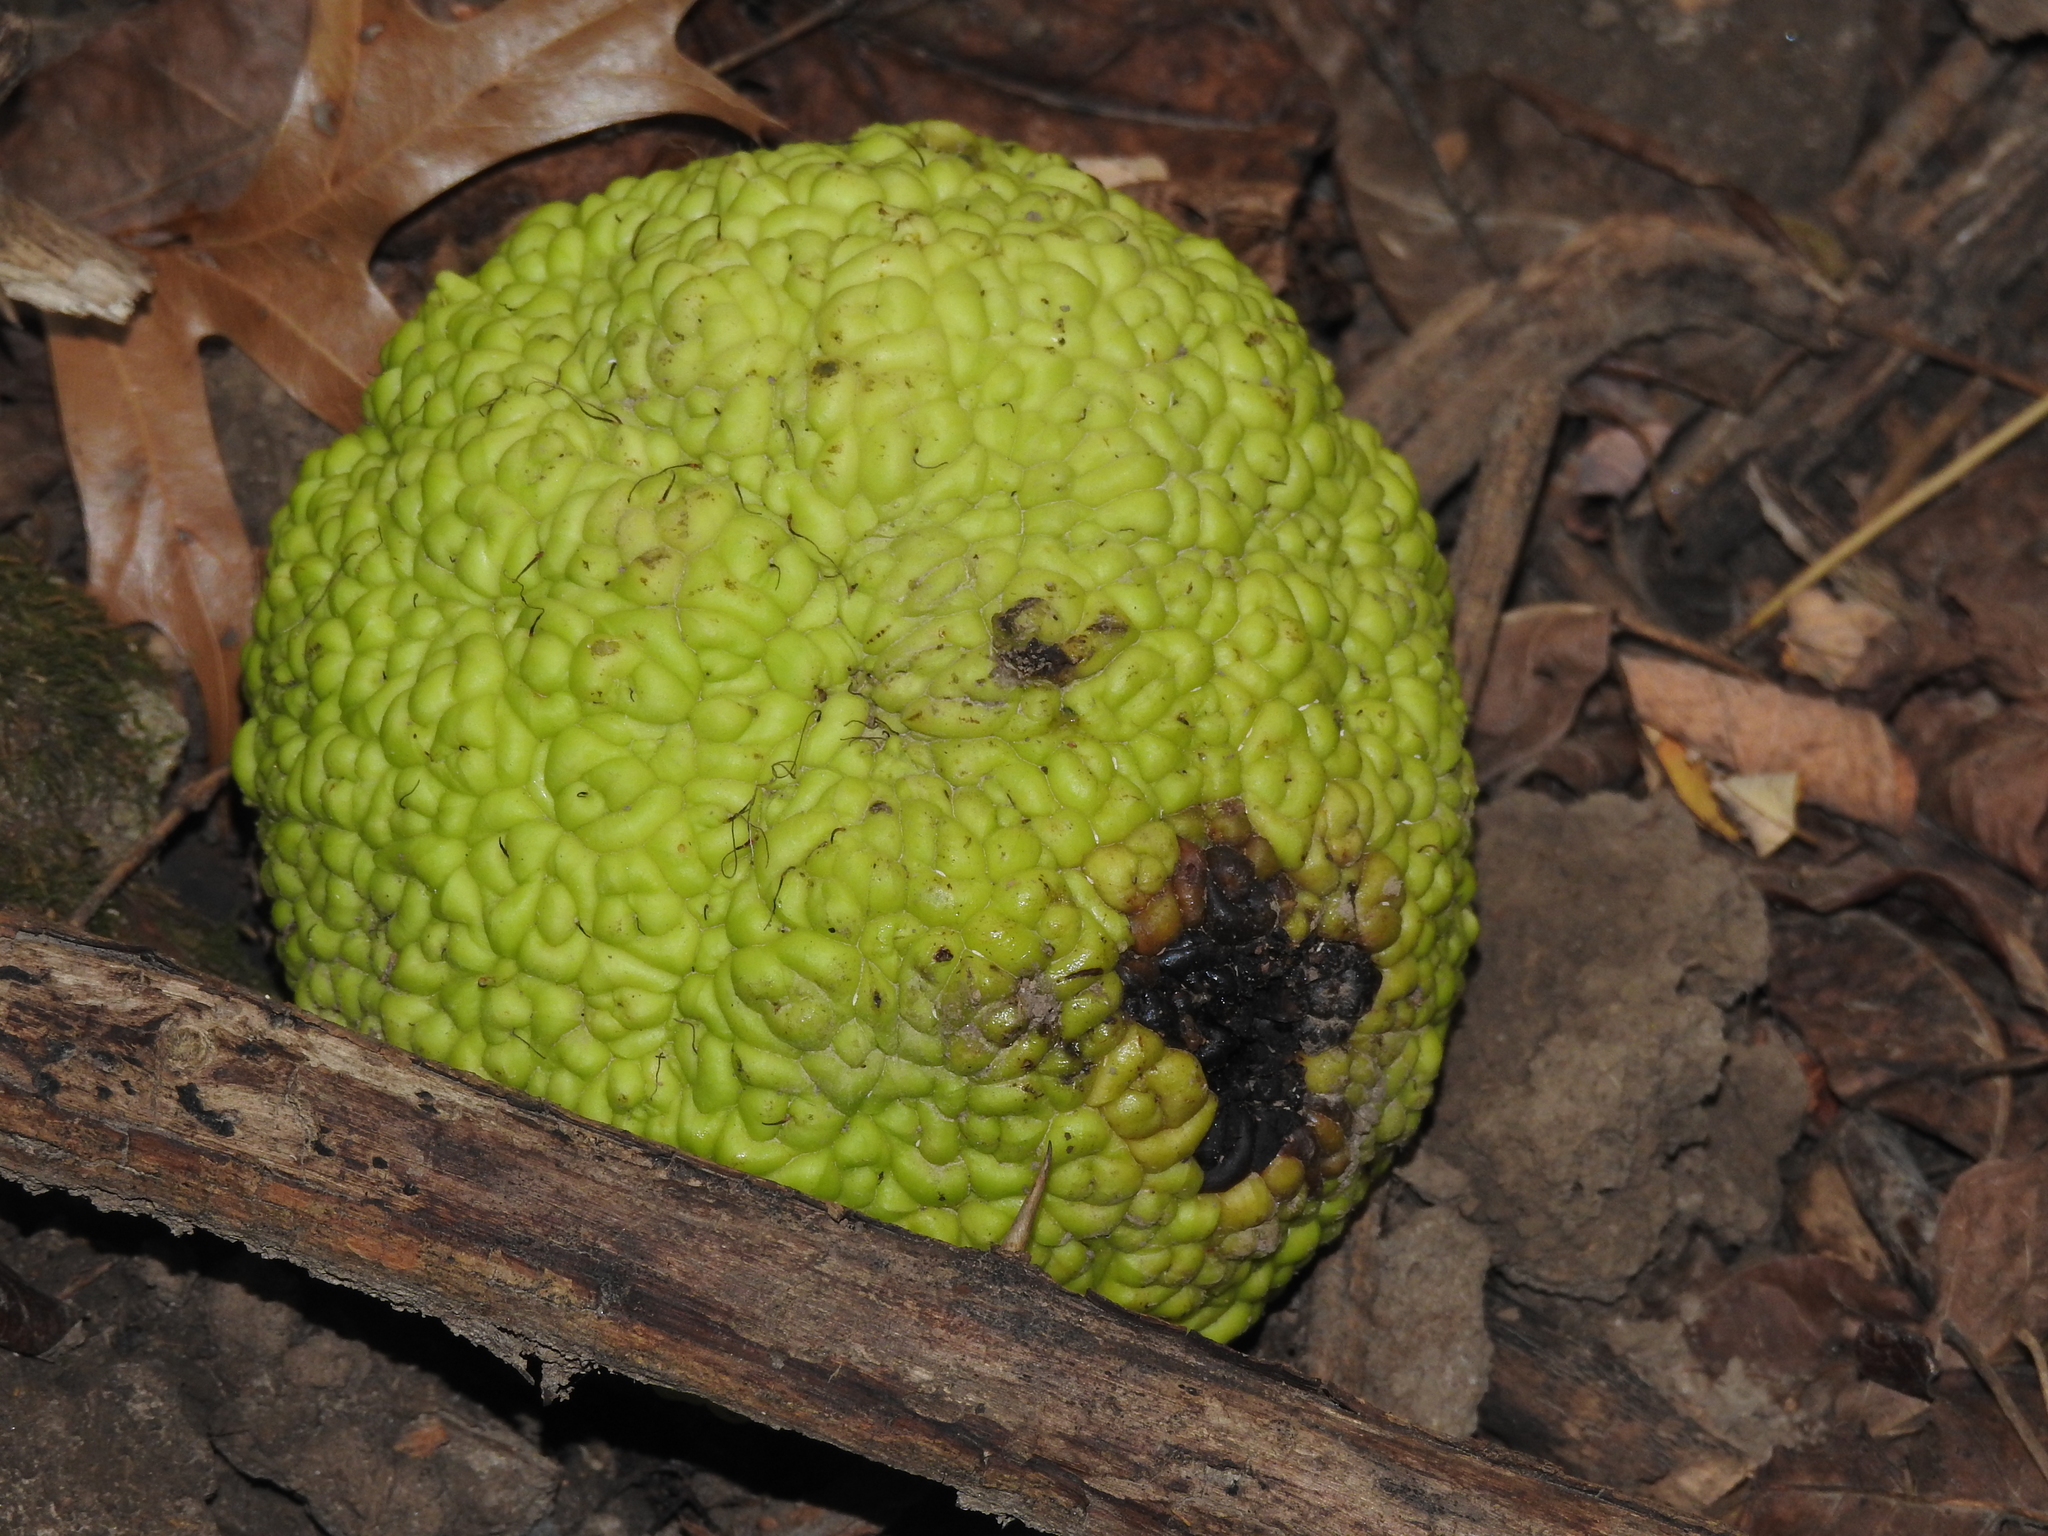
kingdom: Plantae
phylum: Tracheophyta
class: Magnoliopsida
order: Rosales
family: Moraceae
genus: Maclura
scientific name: Maclura pomifera
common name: Osage-orange
